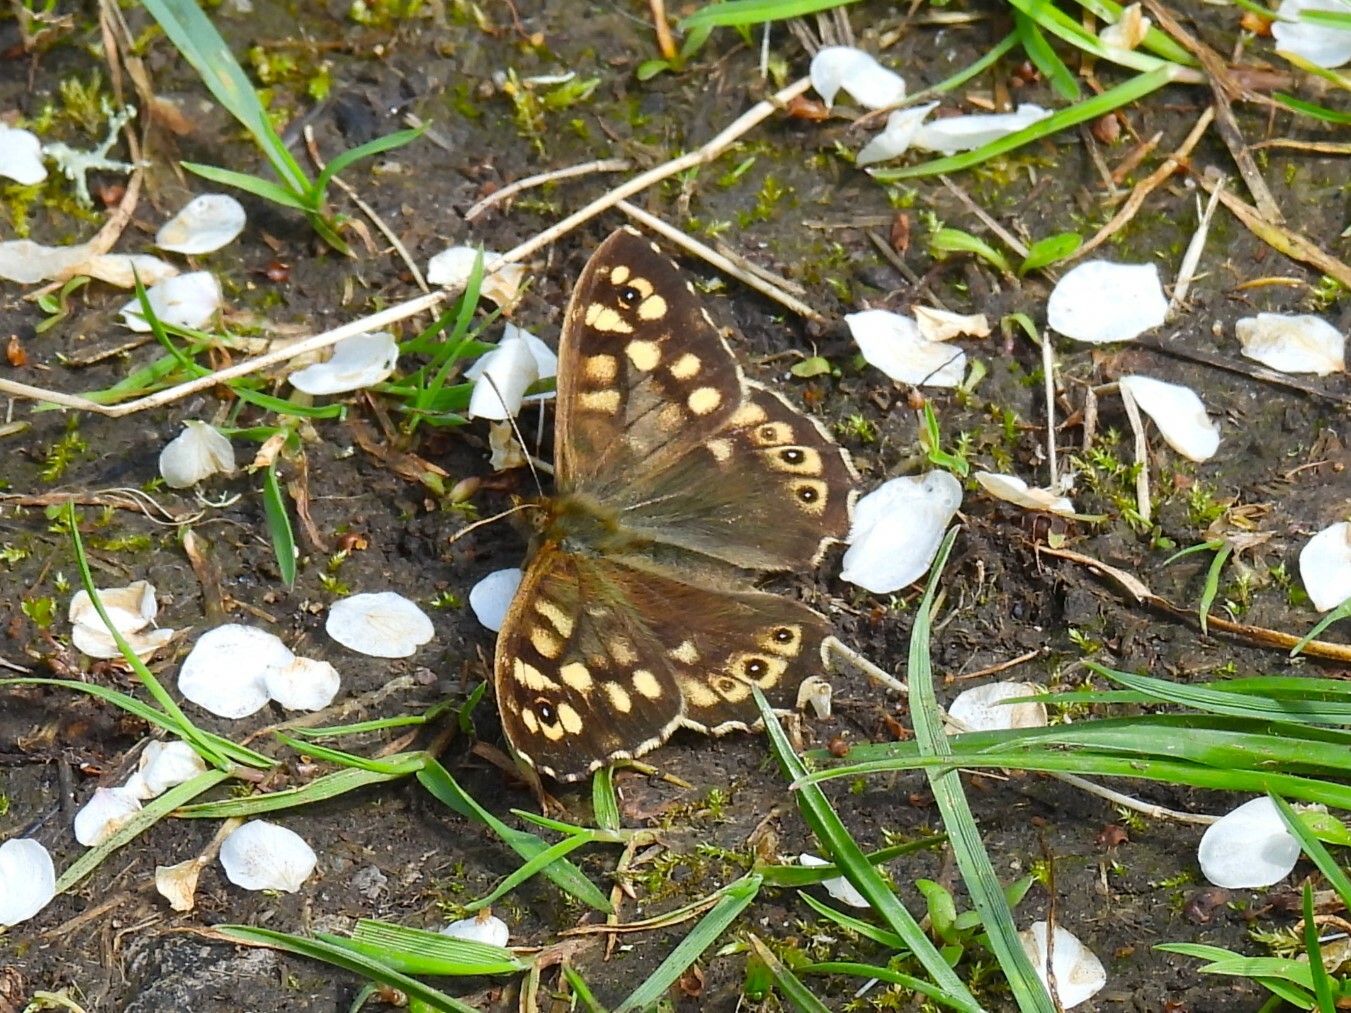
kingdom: Animalia
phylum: Arthropoda
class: Insecta
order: Lepidoptera
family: Nymphalidae
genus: Pararge
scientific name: Pararge aegeria
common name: Speckled wood
